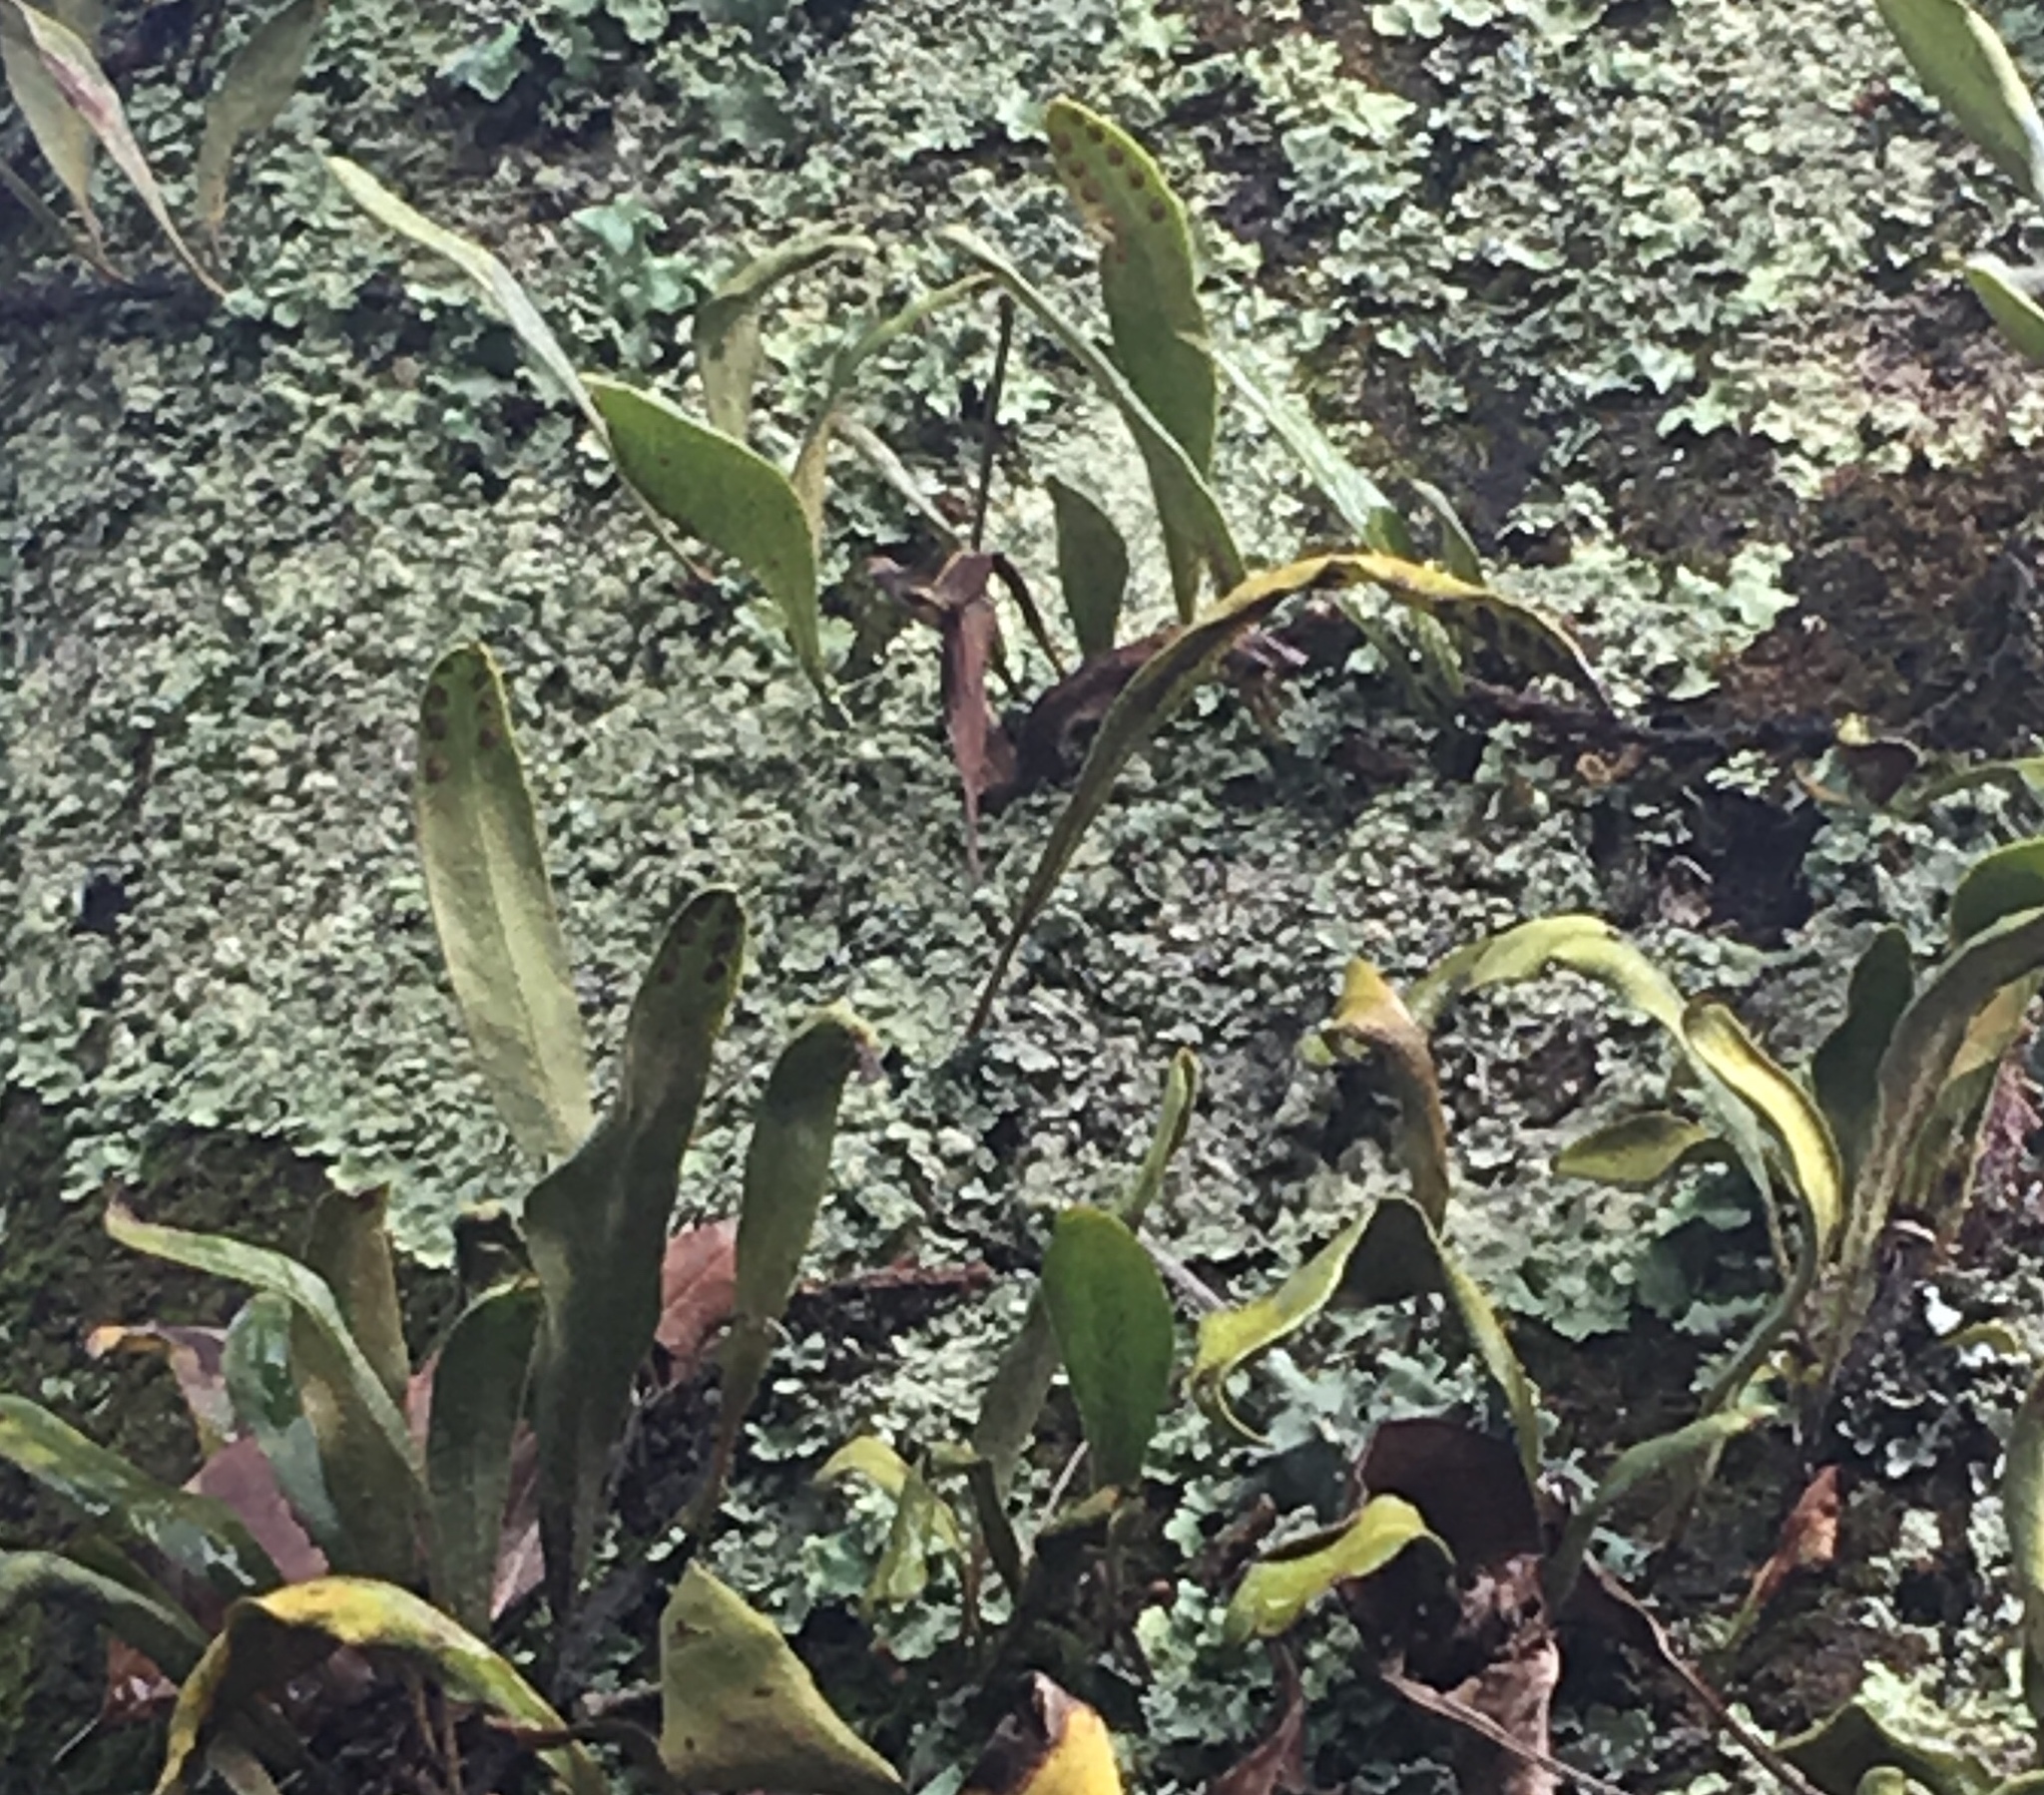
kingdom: Plantae
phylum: Tracheophyta
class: Polypodiopsida
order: Polypodiales
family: Polypodiaceae
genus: Pleopeltis
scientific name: Pleopeltis macrocarpa
